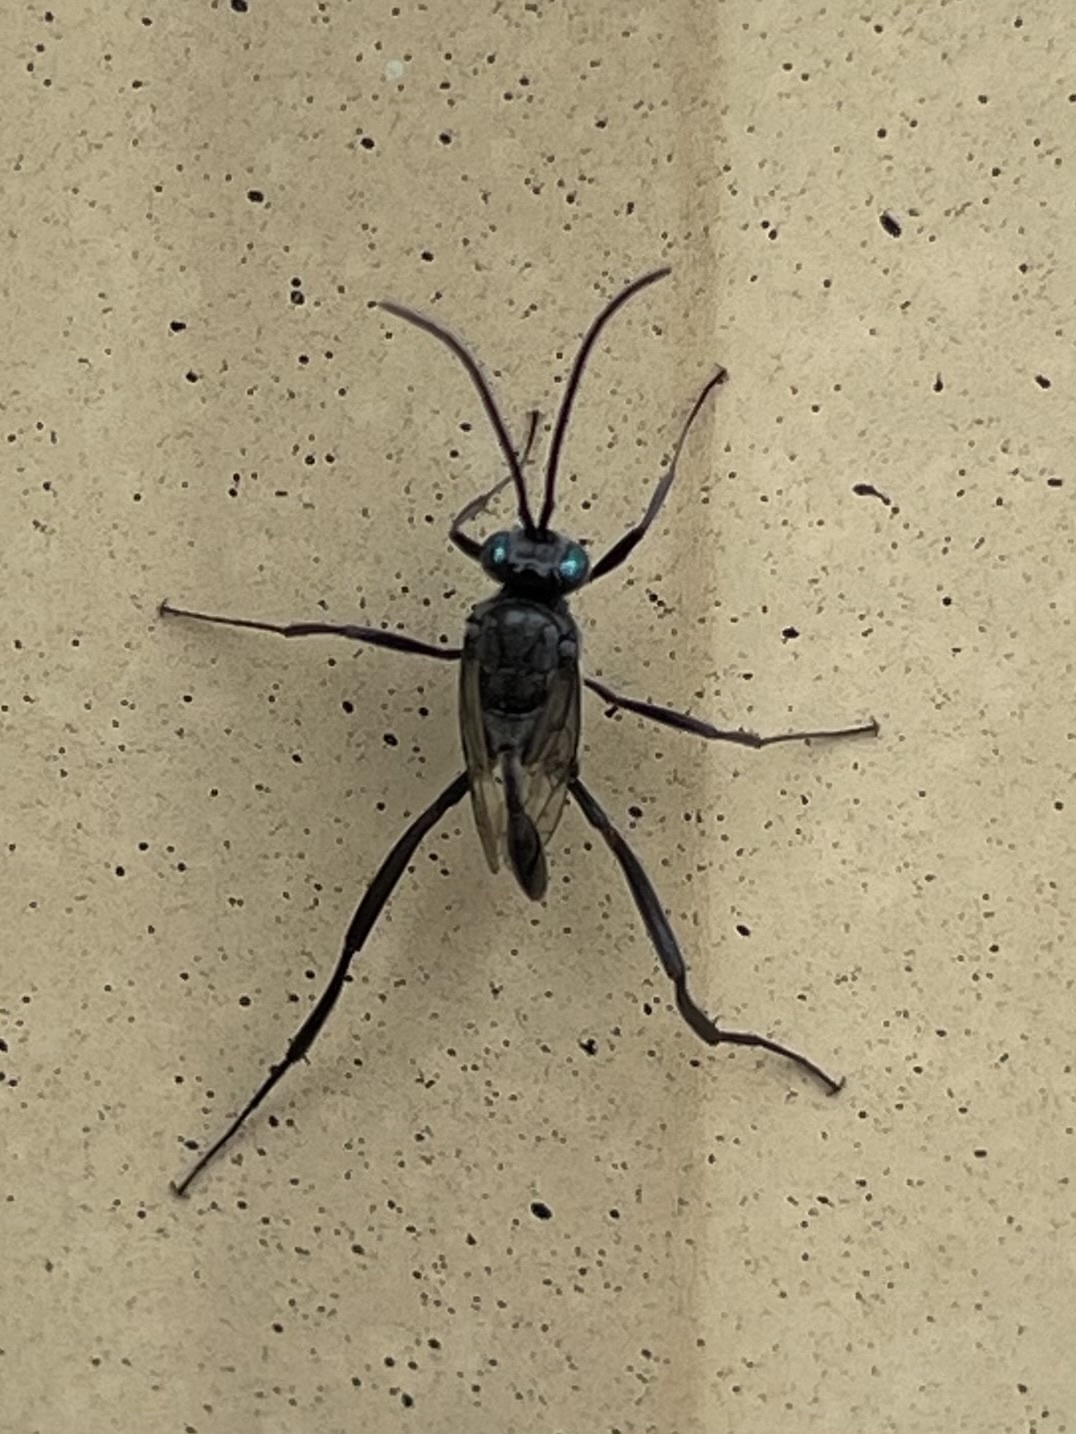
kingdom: Animalia
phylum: Arthropoda
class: Insecta
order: Hymenoptera
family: Evaniidae
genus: Evania
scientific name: Evania appendigaster
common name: Ensign wasp
